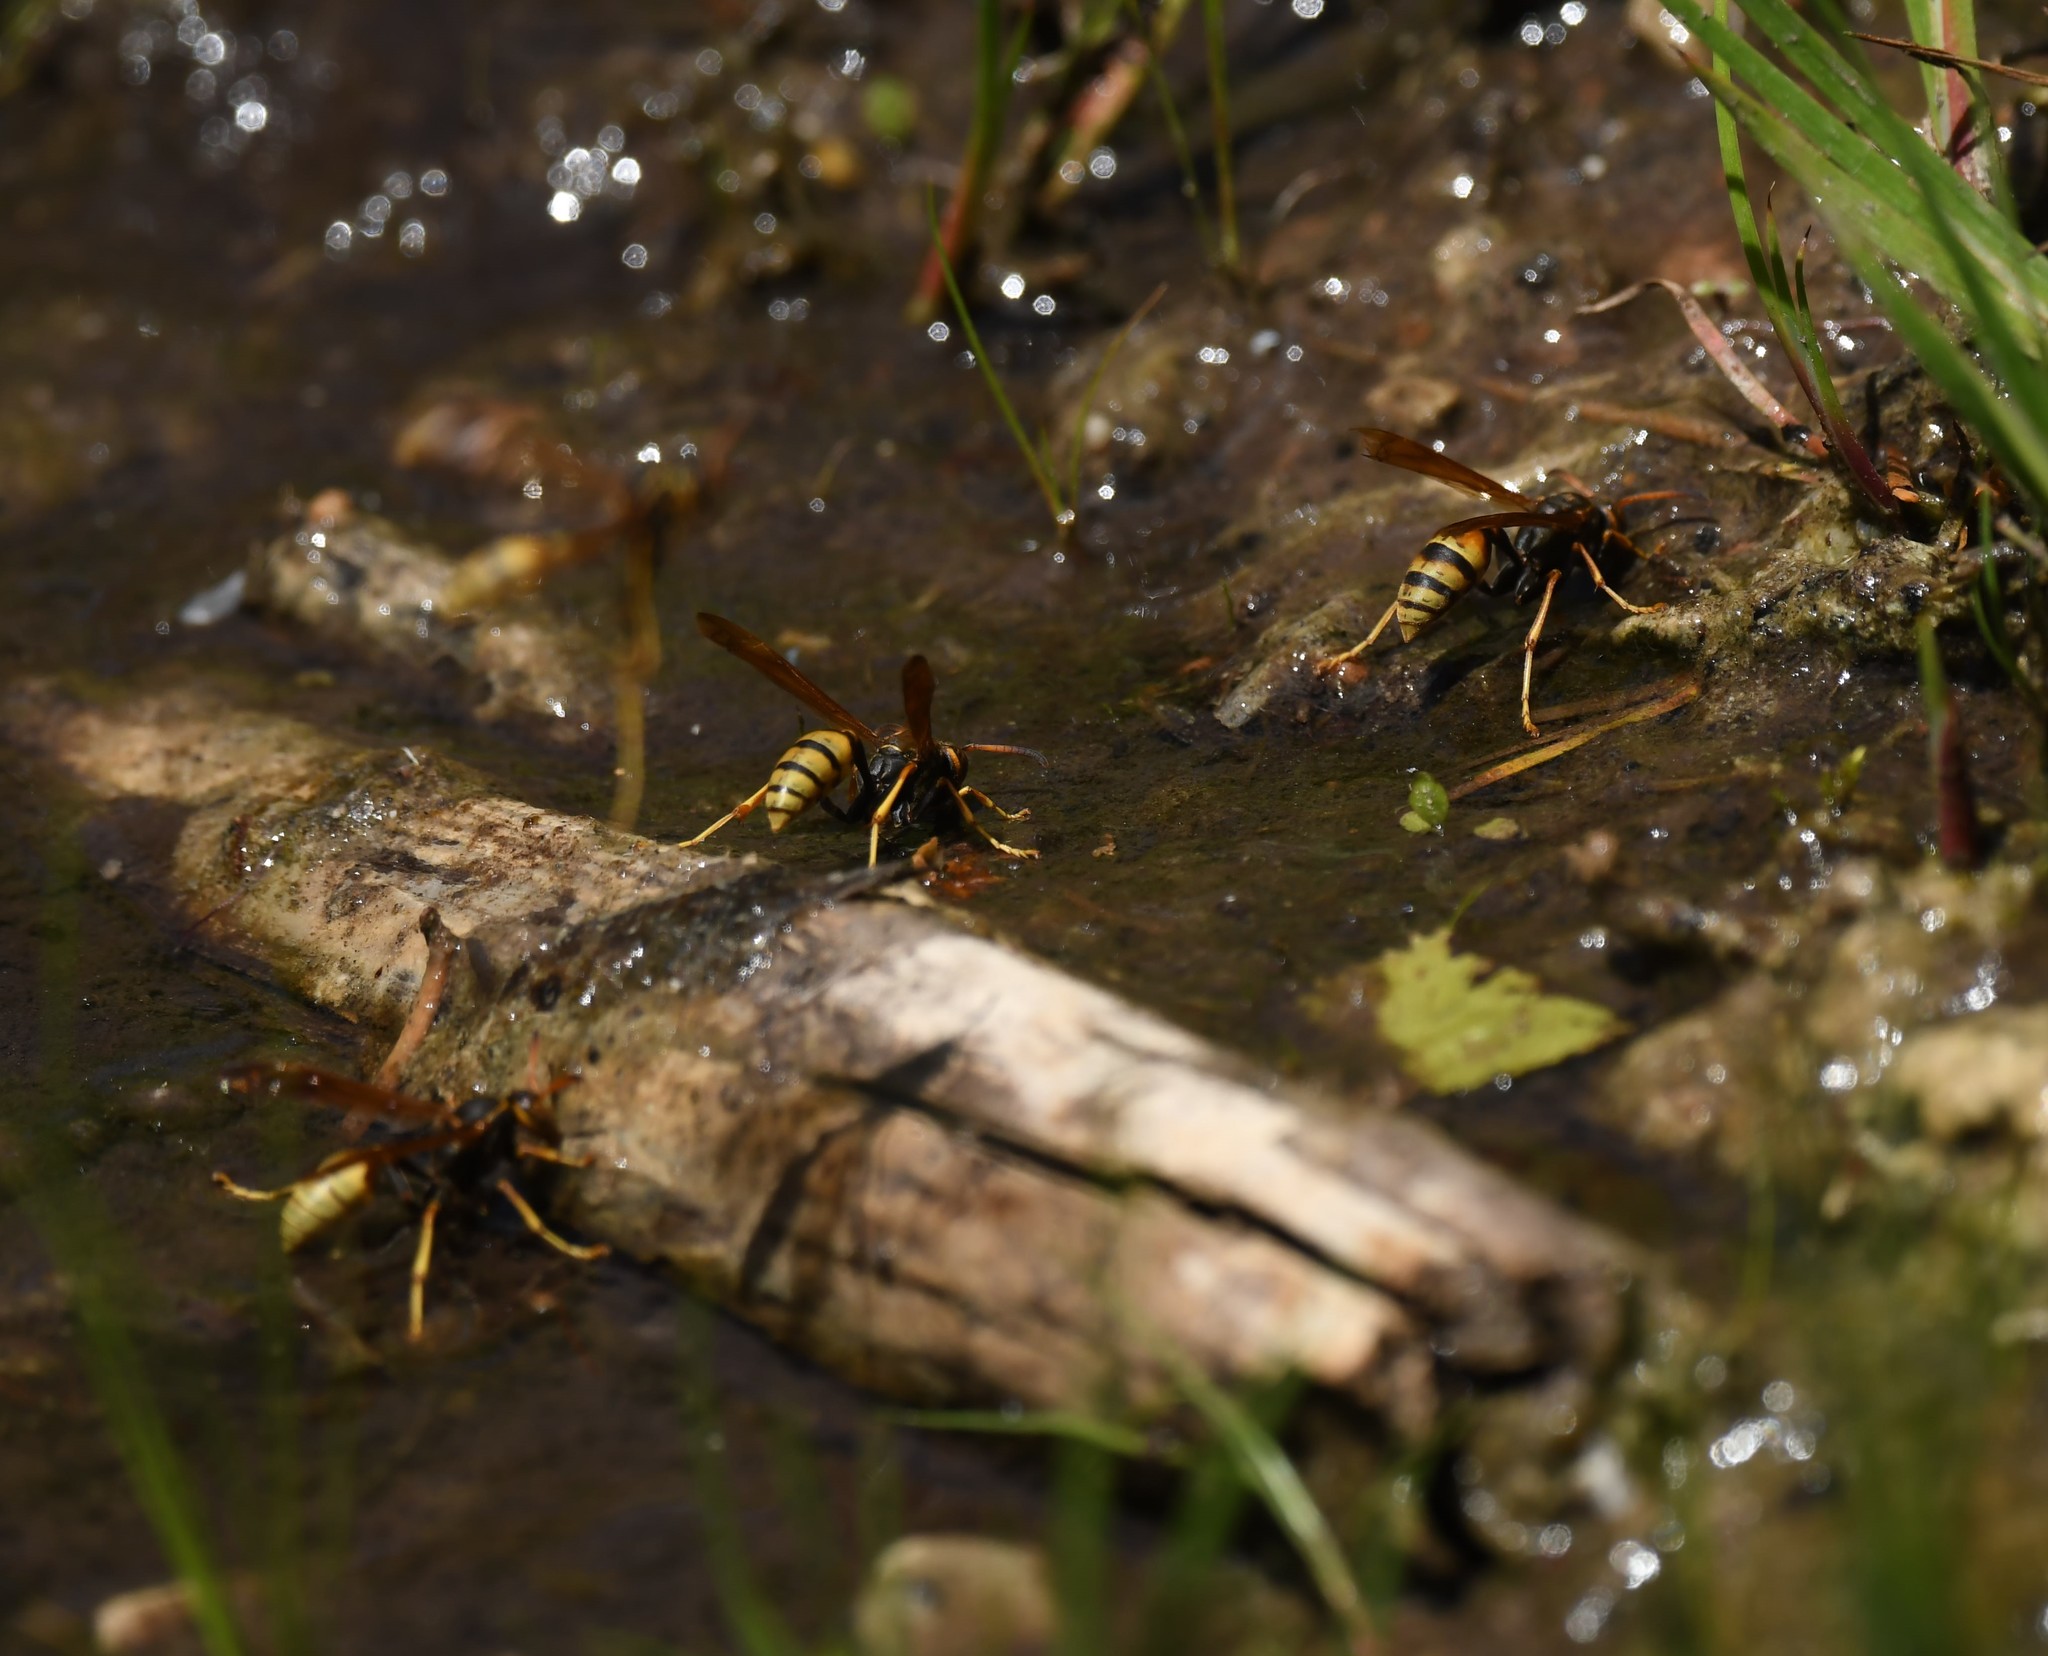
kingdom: Animalia
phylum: Arthropoda
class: Insecta
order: Hymenoptera
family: Vespidae
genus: Mischocyttarus
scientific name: Mischocyttarus flavitarsis
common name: Wasp
